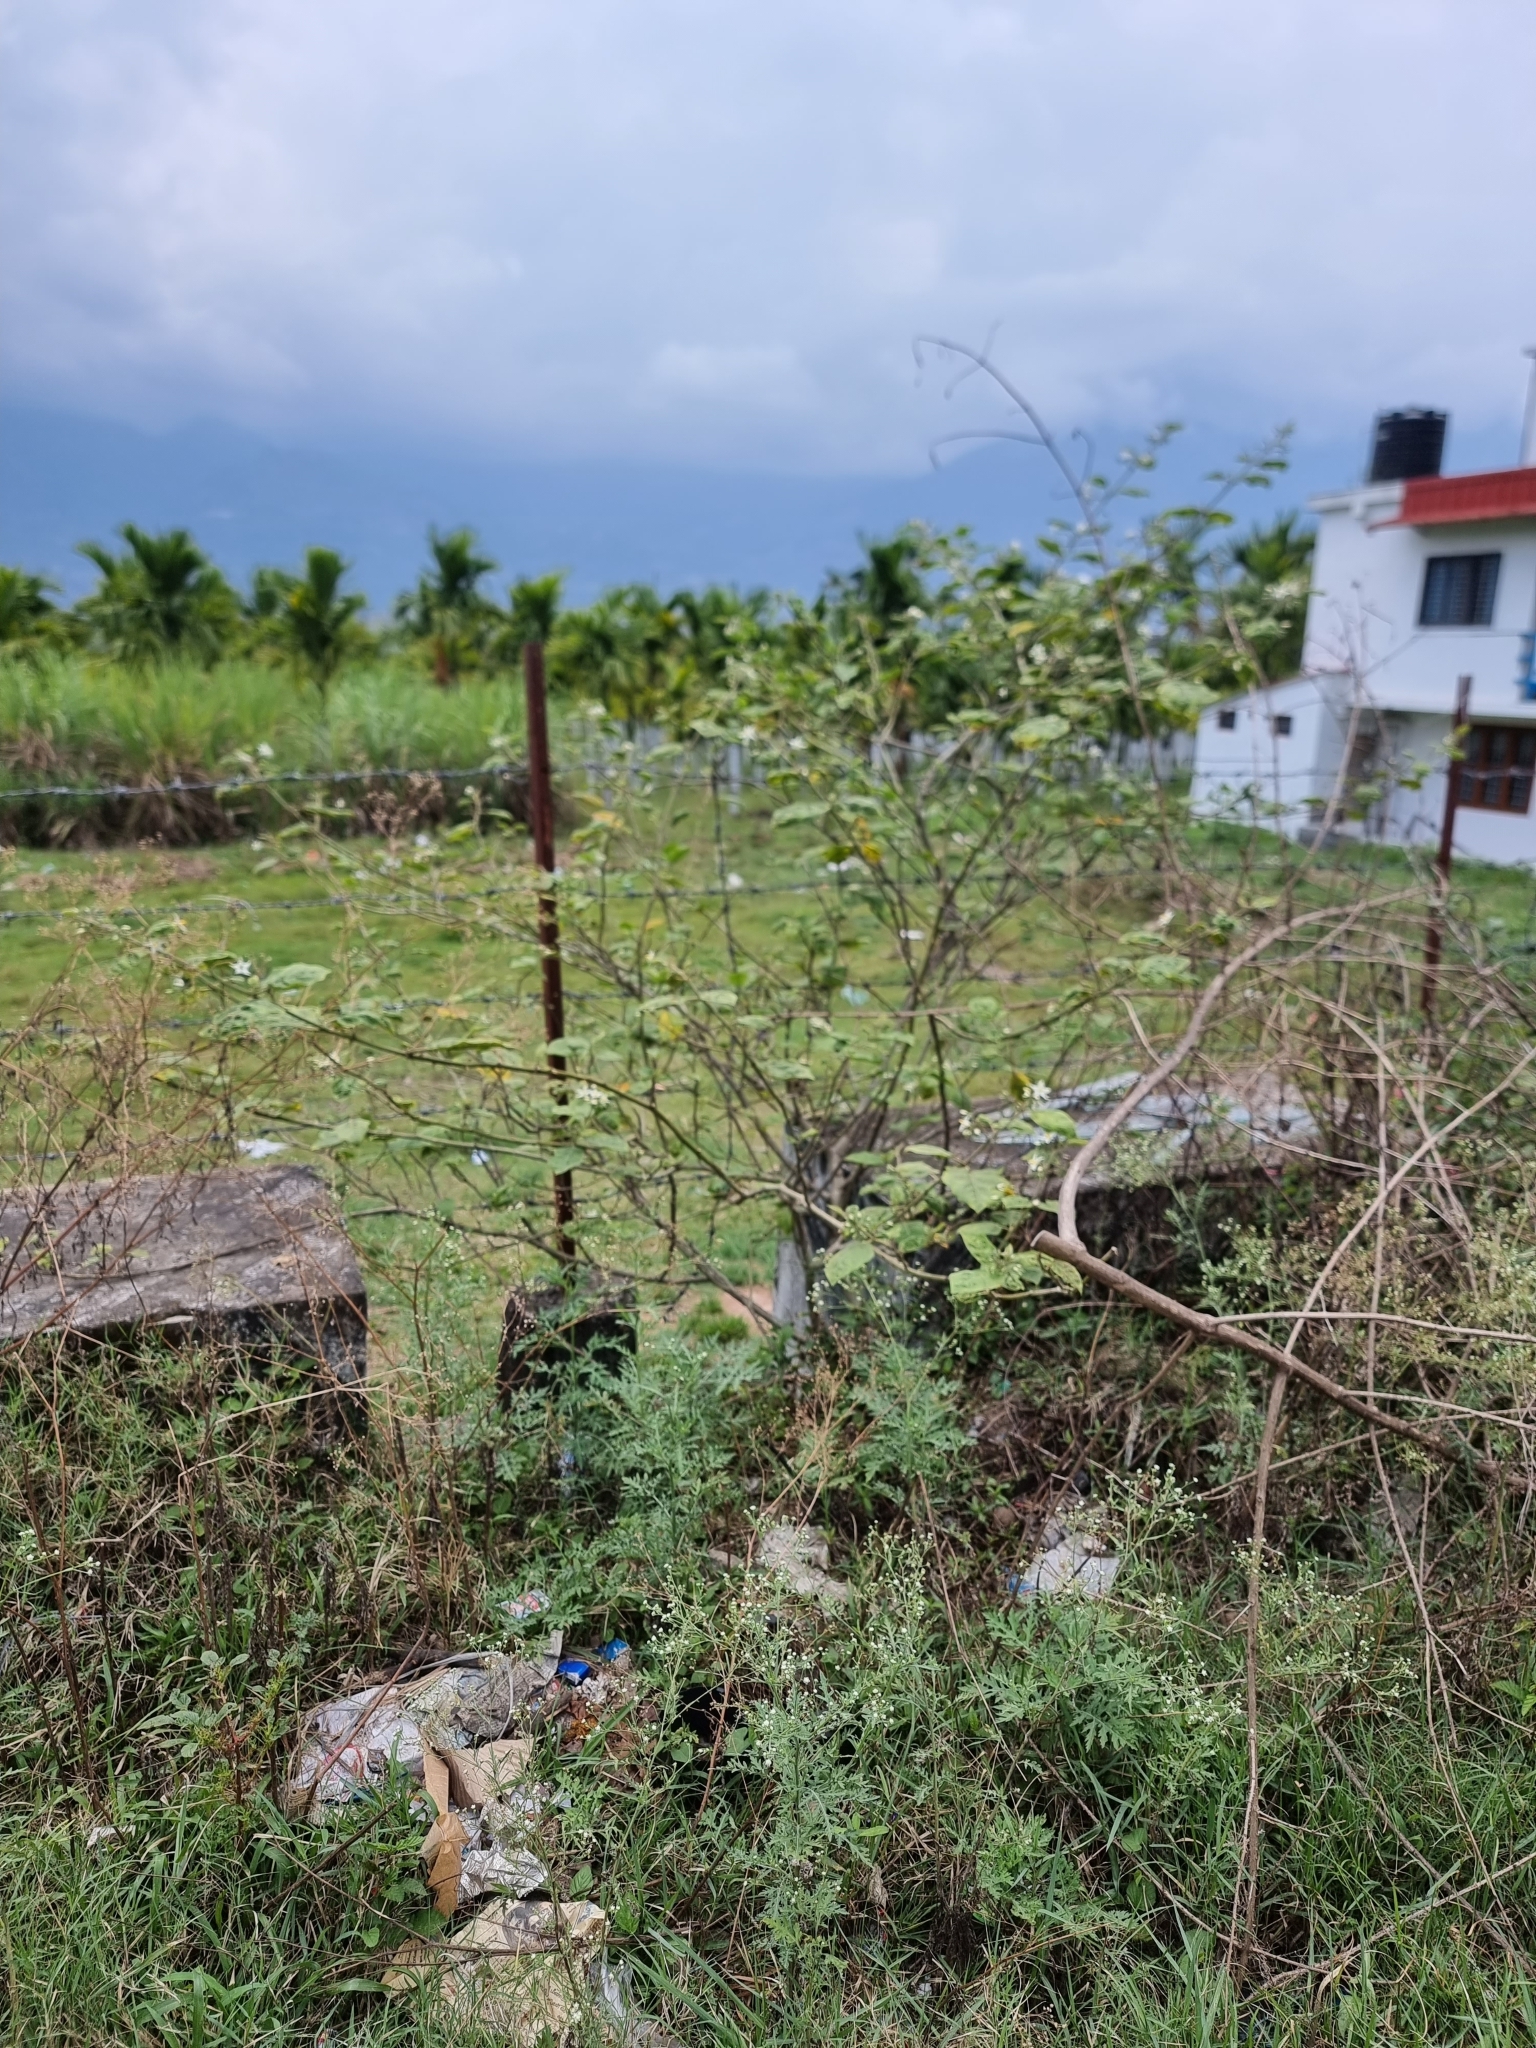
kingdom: Plantae
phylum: Tracheophyta
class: Magnoliopsida
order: Solanales
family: Solanaceae
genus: Solanum
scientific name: Solanum torvum
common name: Turkey berry
